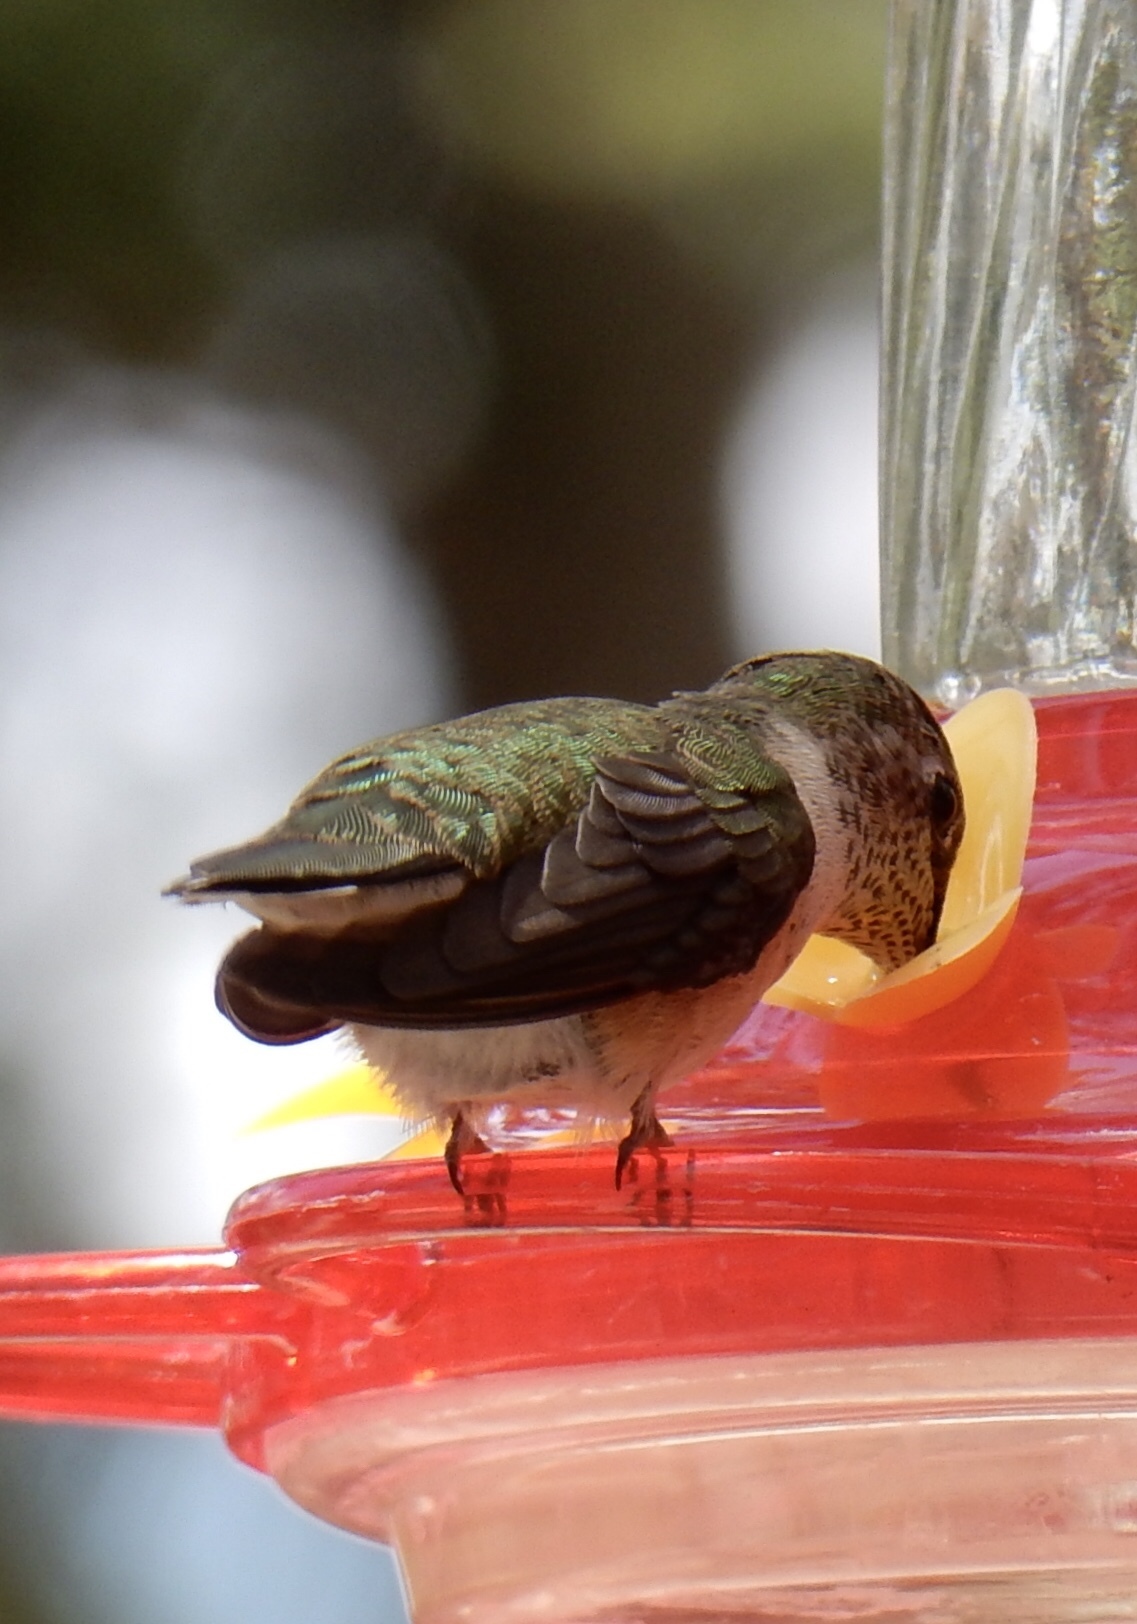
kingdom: Animalia
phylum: Chordata
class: Aves
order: Apodiformes
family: Trochilidae
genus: Selasphorus
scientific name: Selasphorus platycercus
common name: Broad-tailed hummingbird
